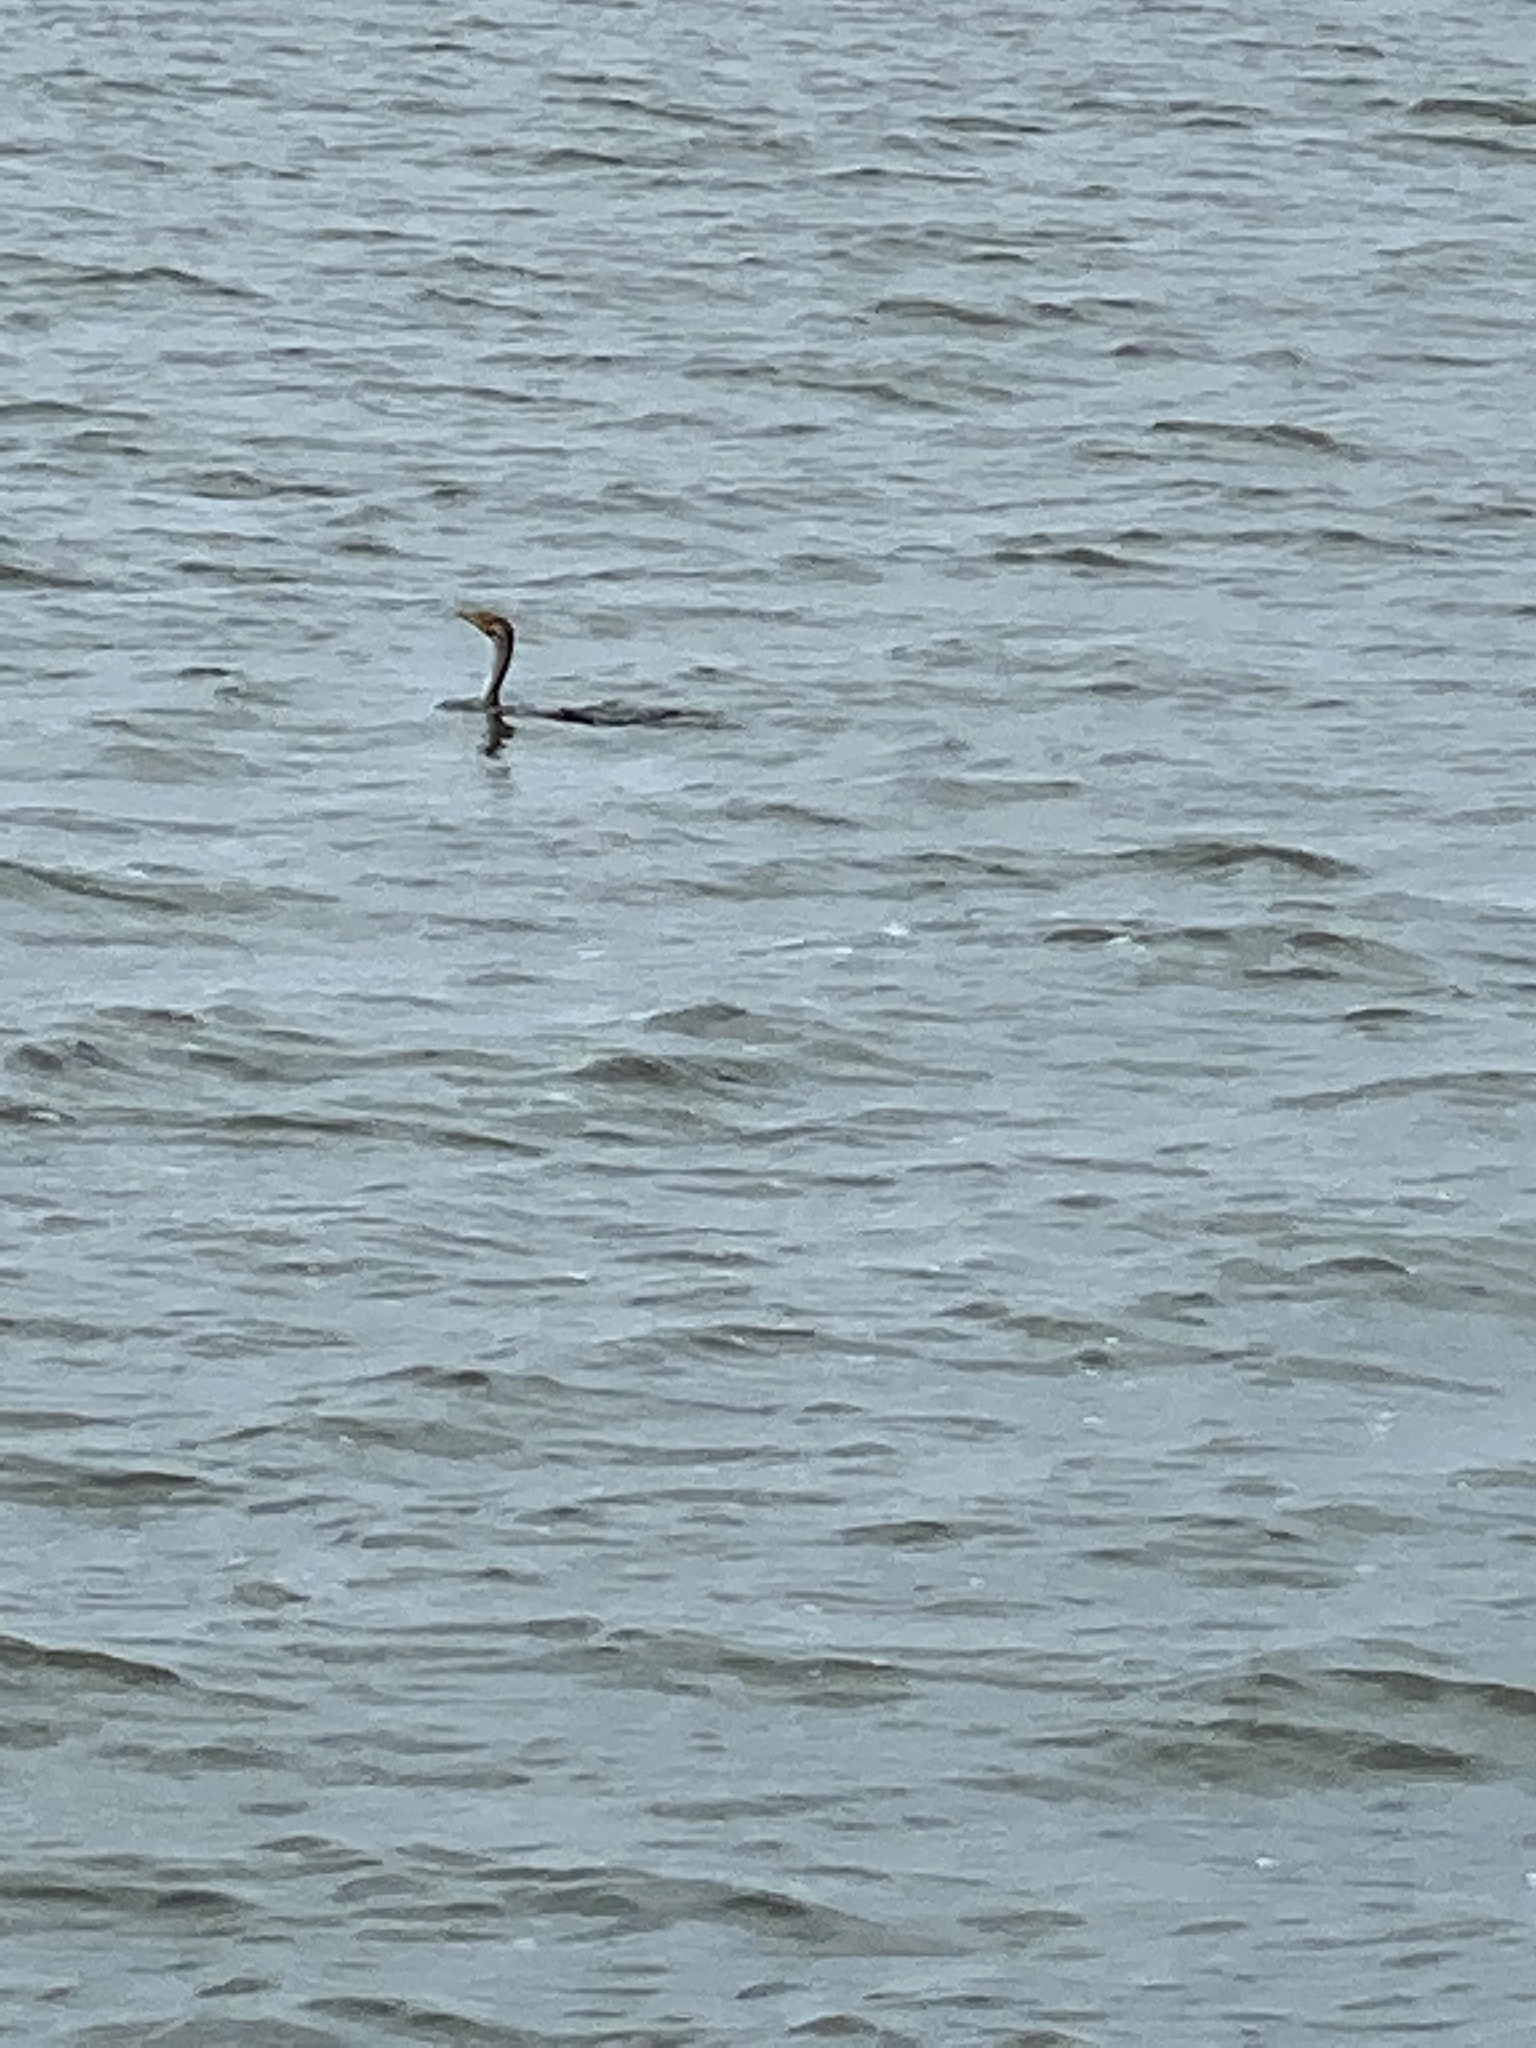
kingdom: Animalia
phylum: Chordata
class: Aves
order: Suliformes
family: Phalacrocoracidae
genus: Phalacrocorax
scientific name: Phalacrocorax auritus
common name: Double-crested cormorant
